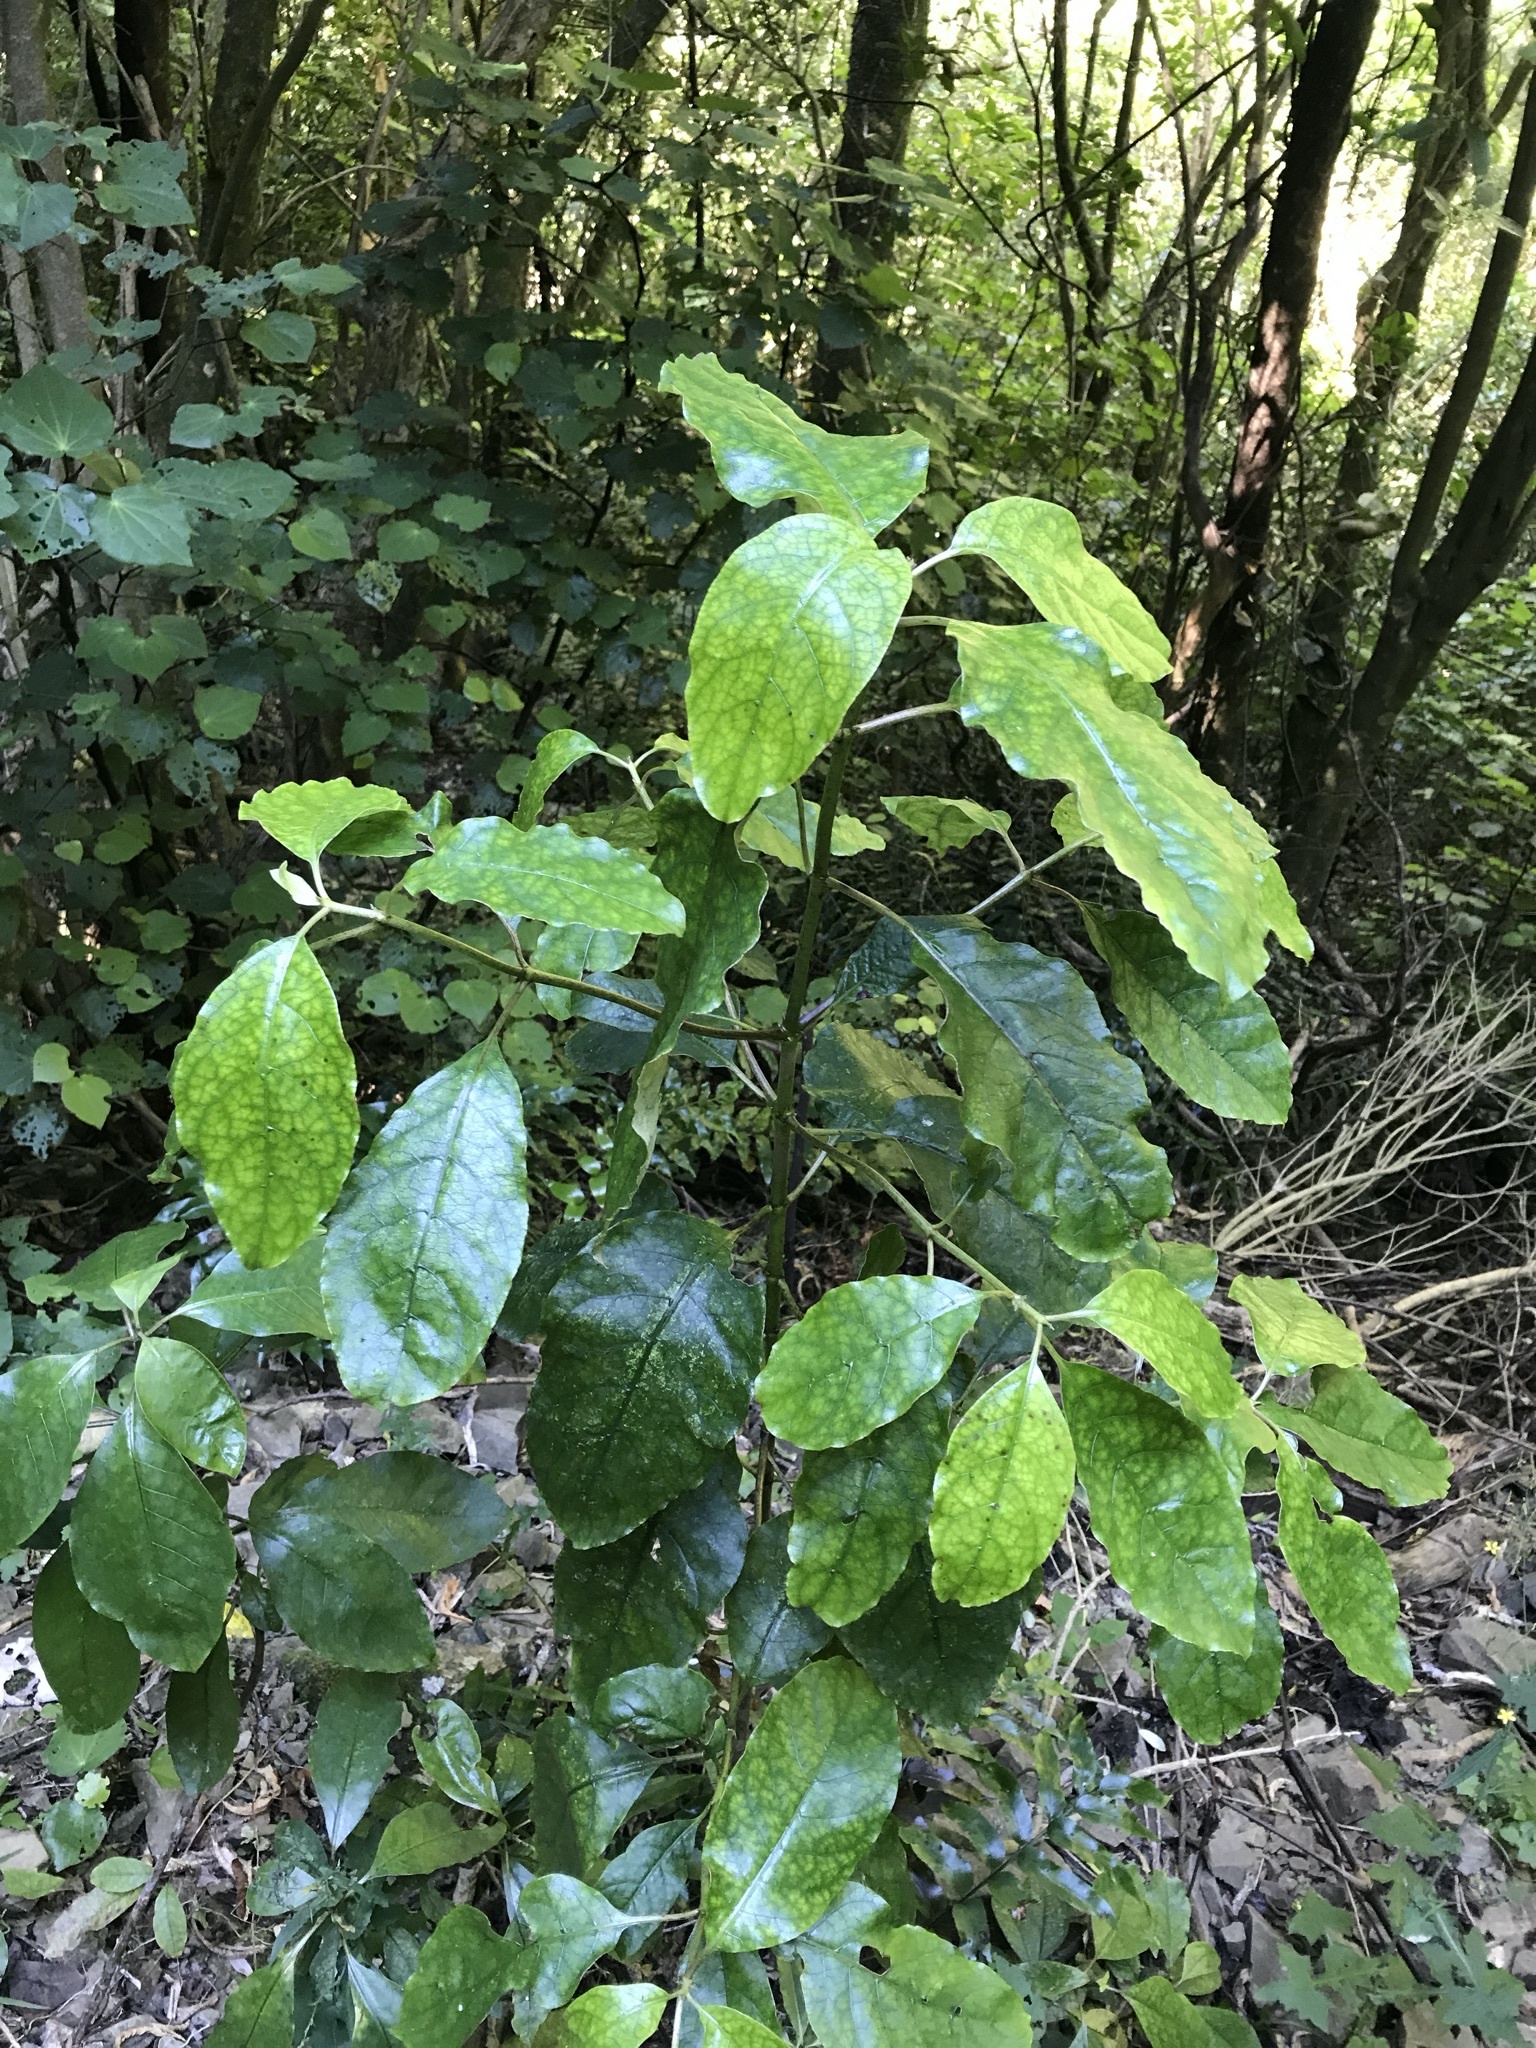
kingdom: Plantae
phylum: Tracheophyta
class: Magnoliopsida
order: Gentianales
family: Rubiaceae
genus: Coprosma
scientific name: Coprosma autumnalis
